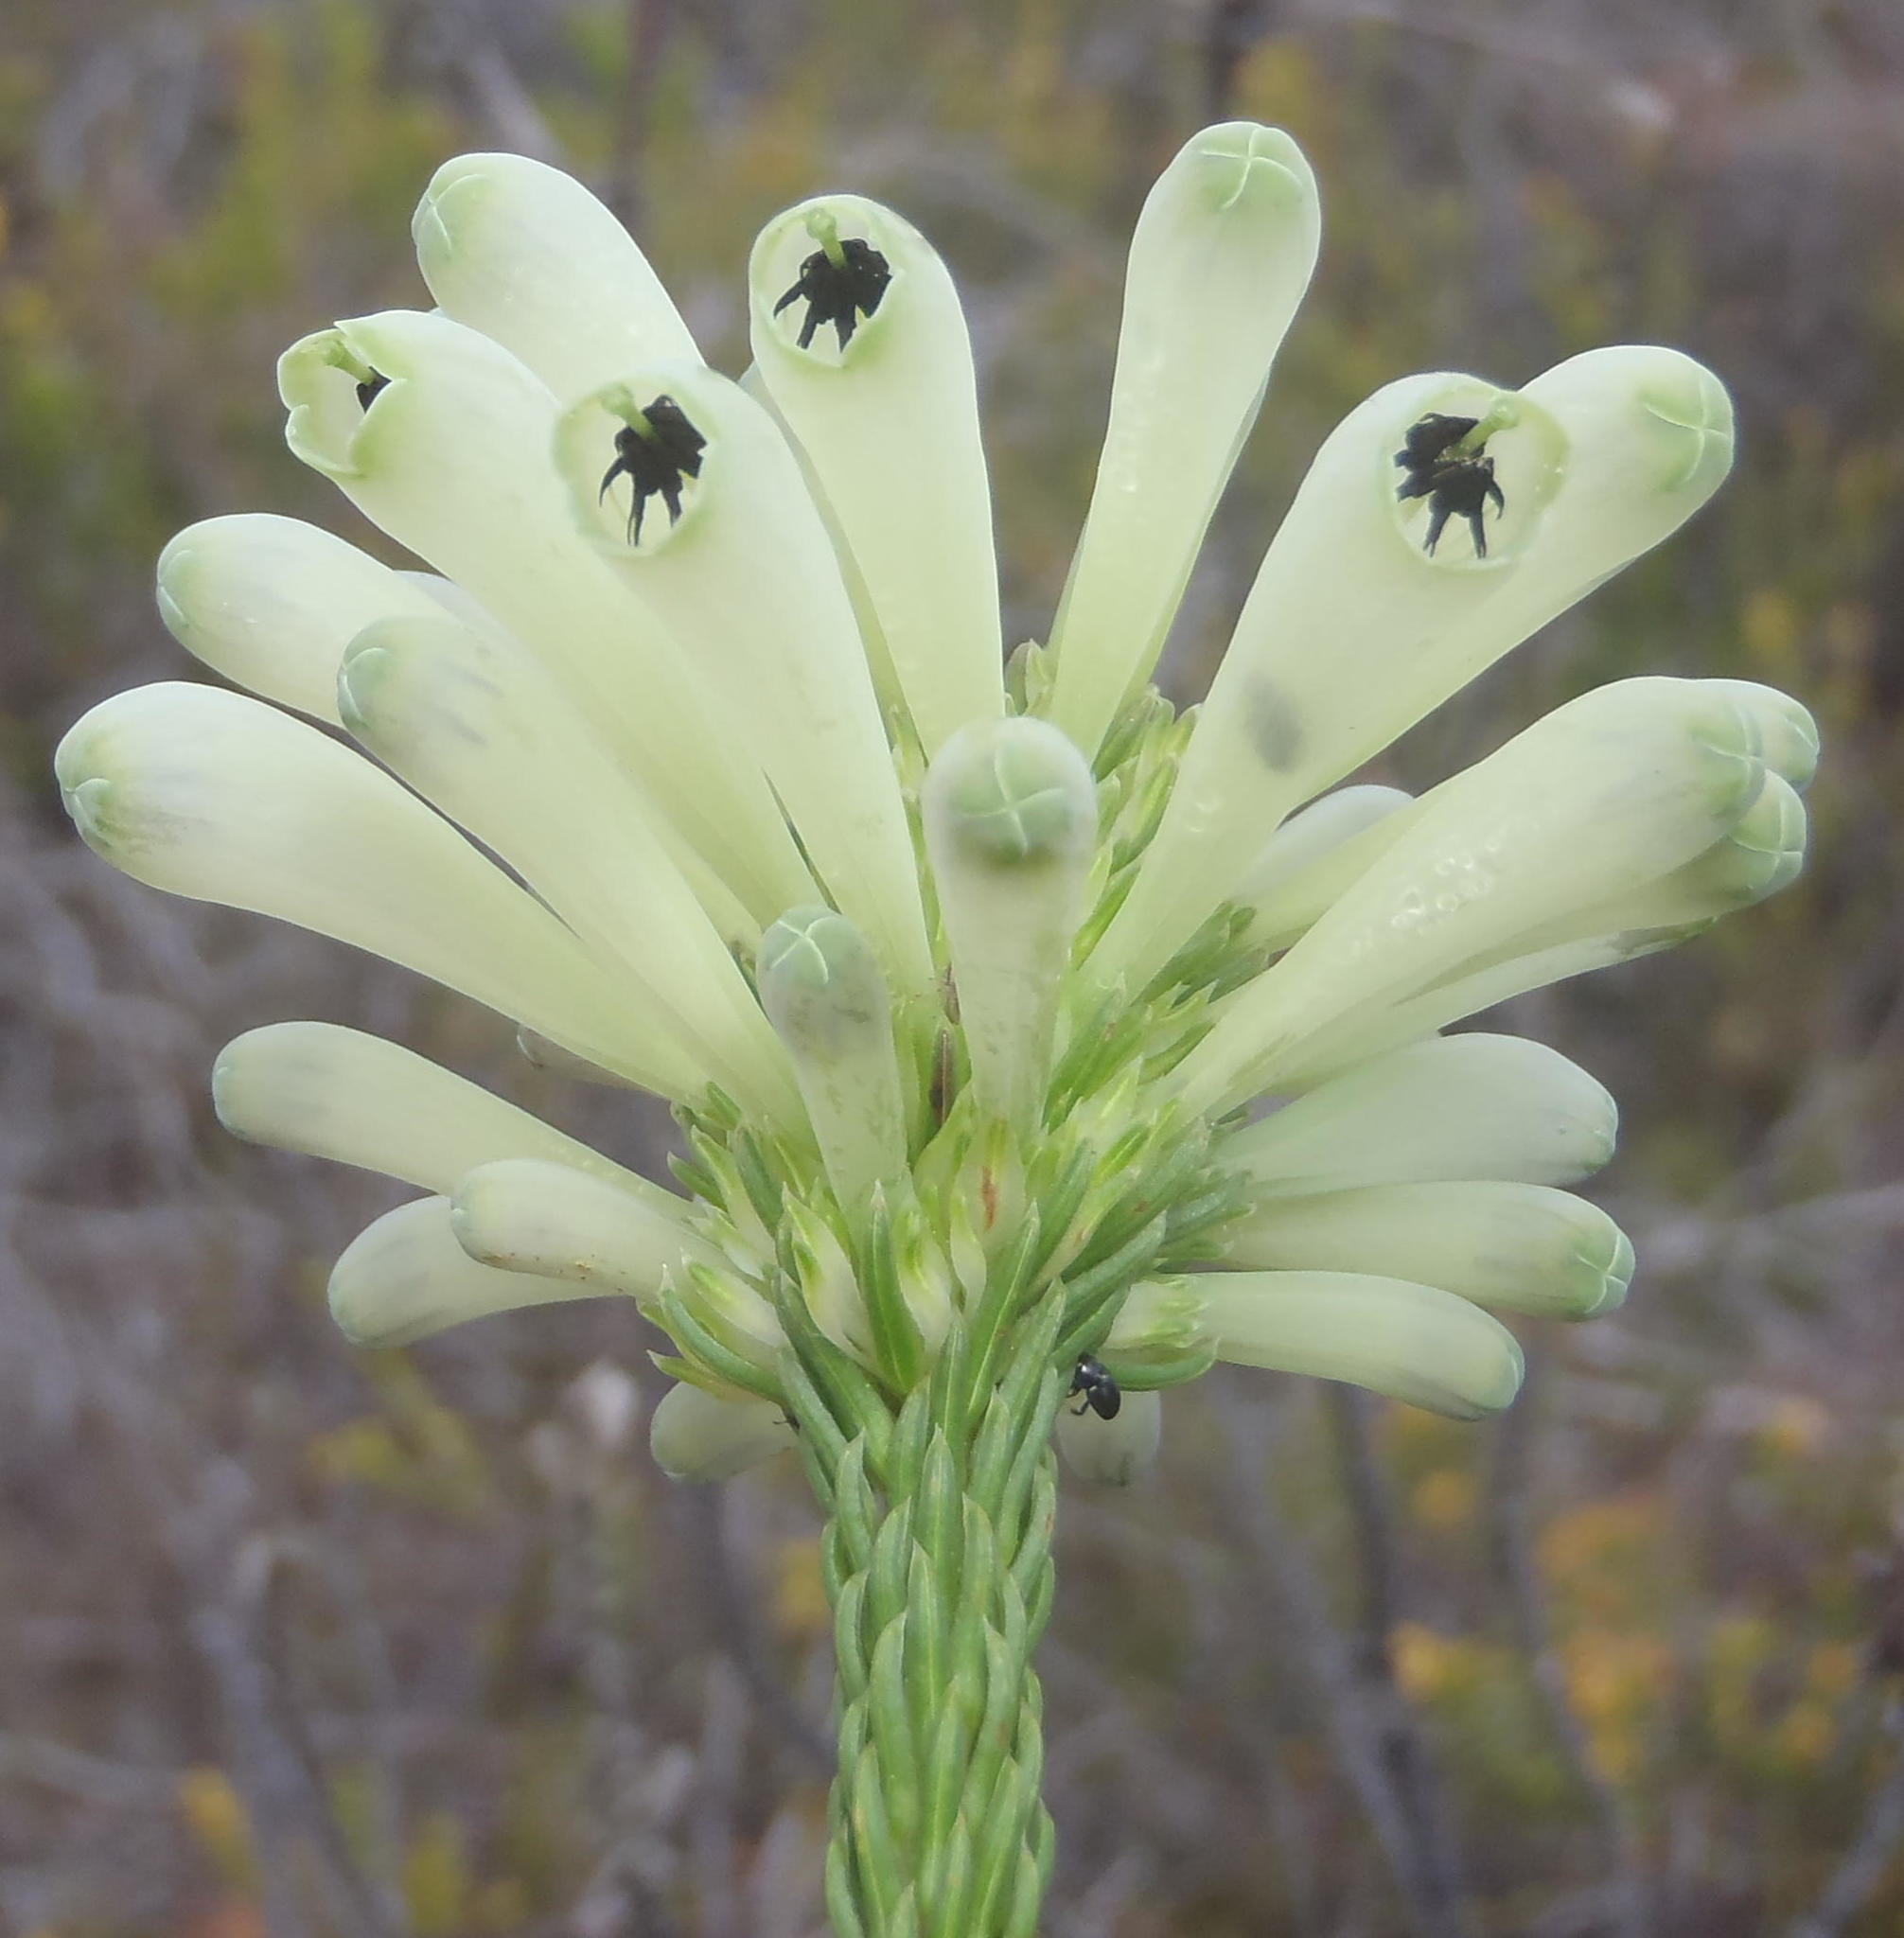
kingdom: Plantae
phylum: Tracheophyta
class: Magnoliopsida
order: Ericales
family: Ericaceae
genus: Erica
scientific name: Erica sessiliflora
